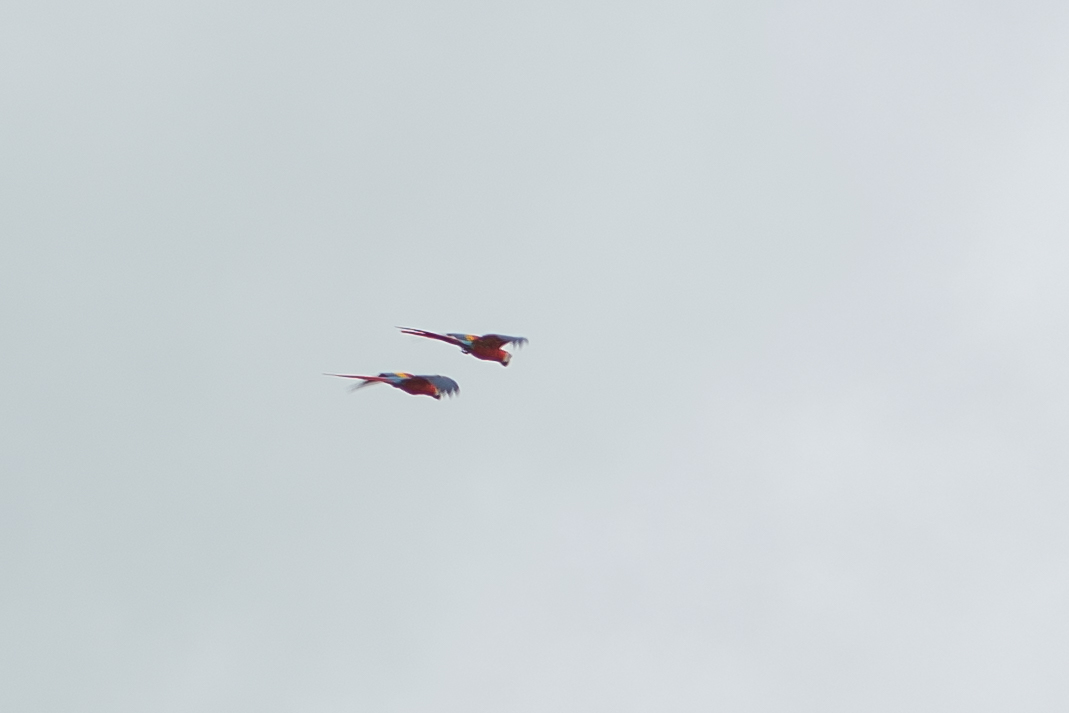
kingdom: Animalia
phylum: Chordata
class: Aves
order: Psittaciformes
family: Psittacidae
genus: Ara
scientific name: Ara macao
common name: Scarlet macaw
